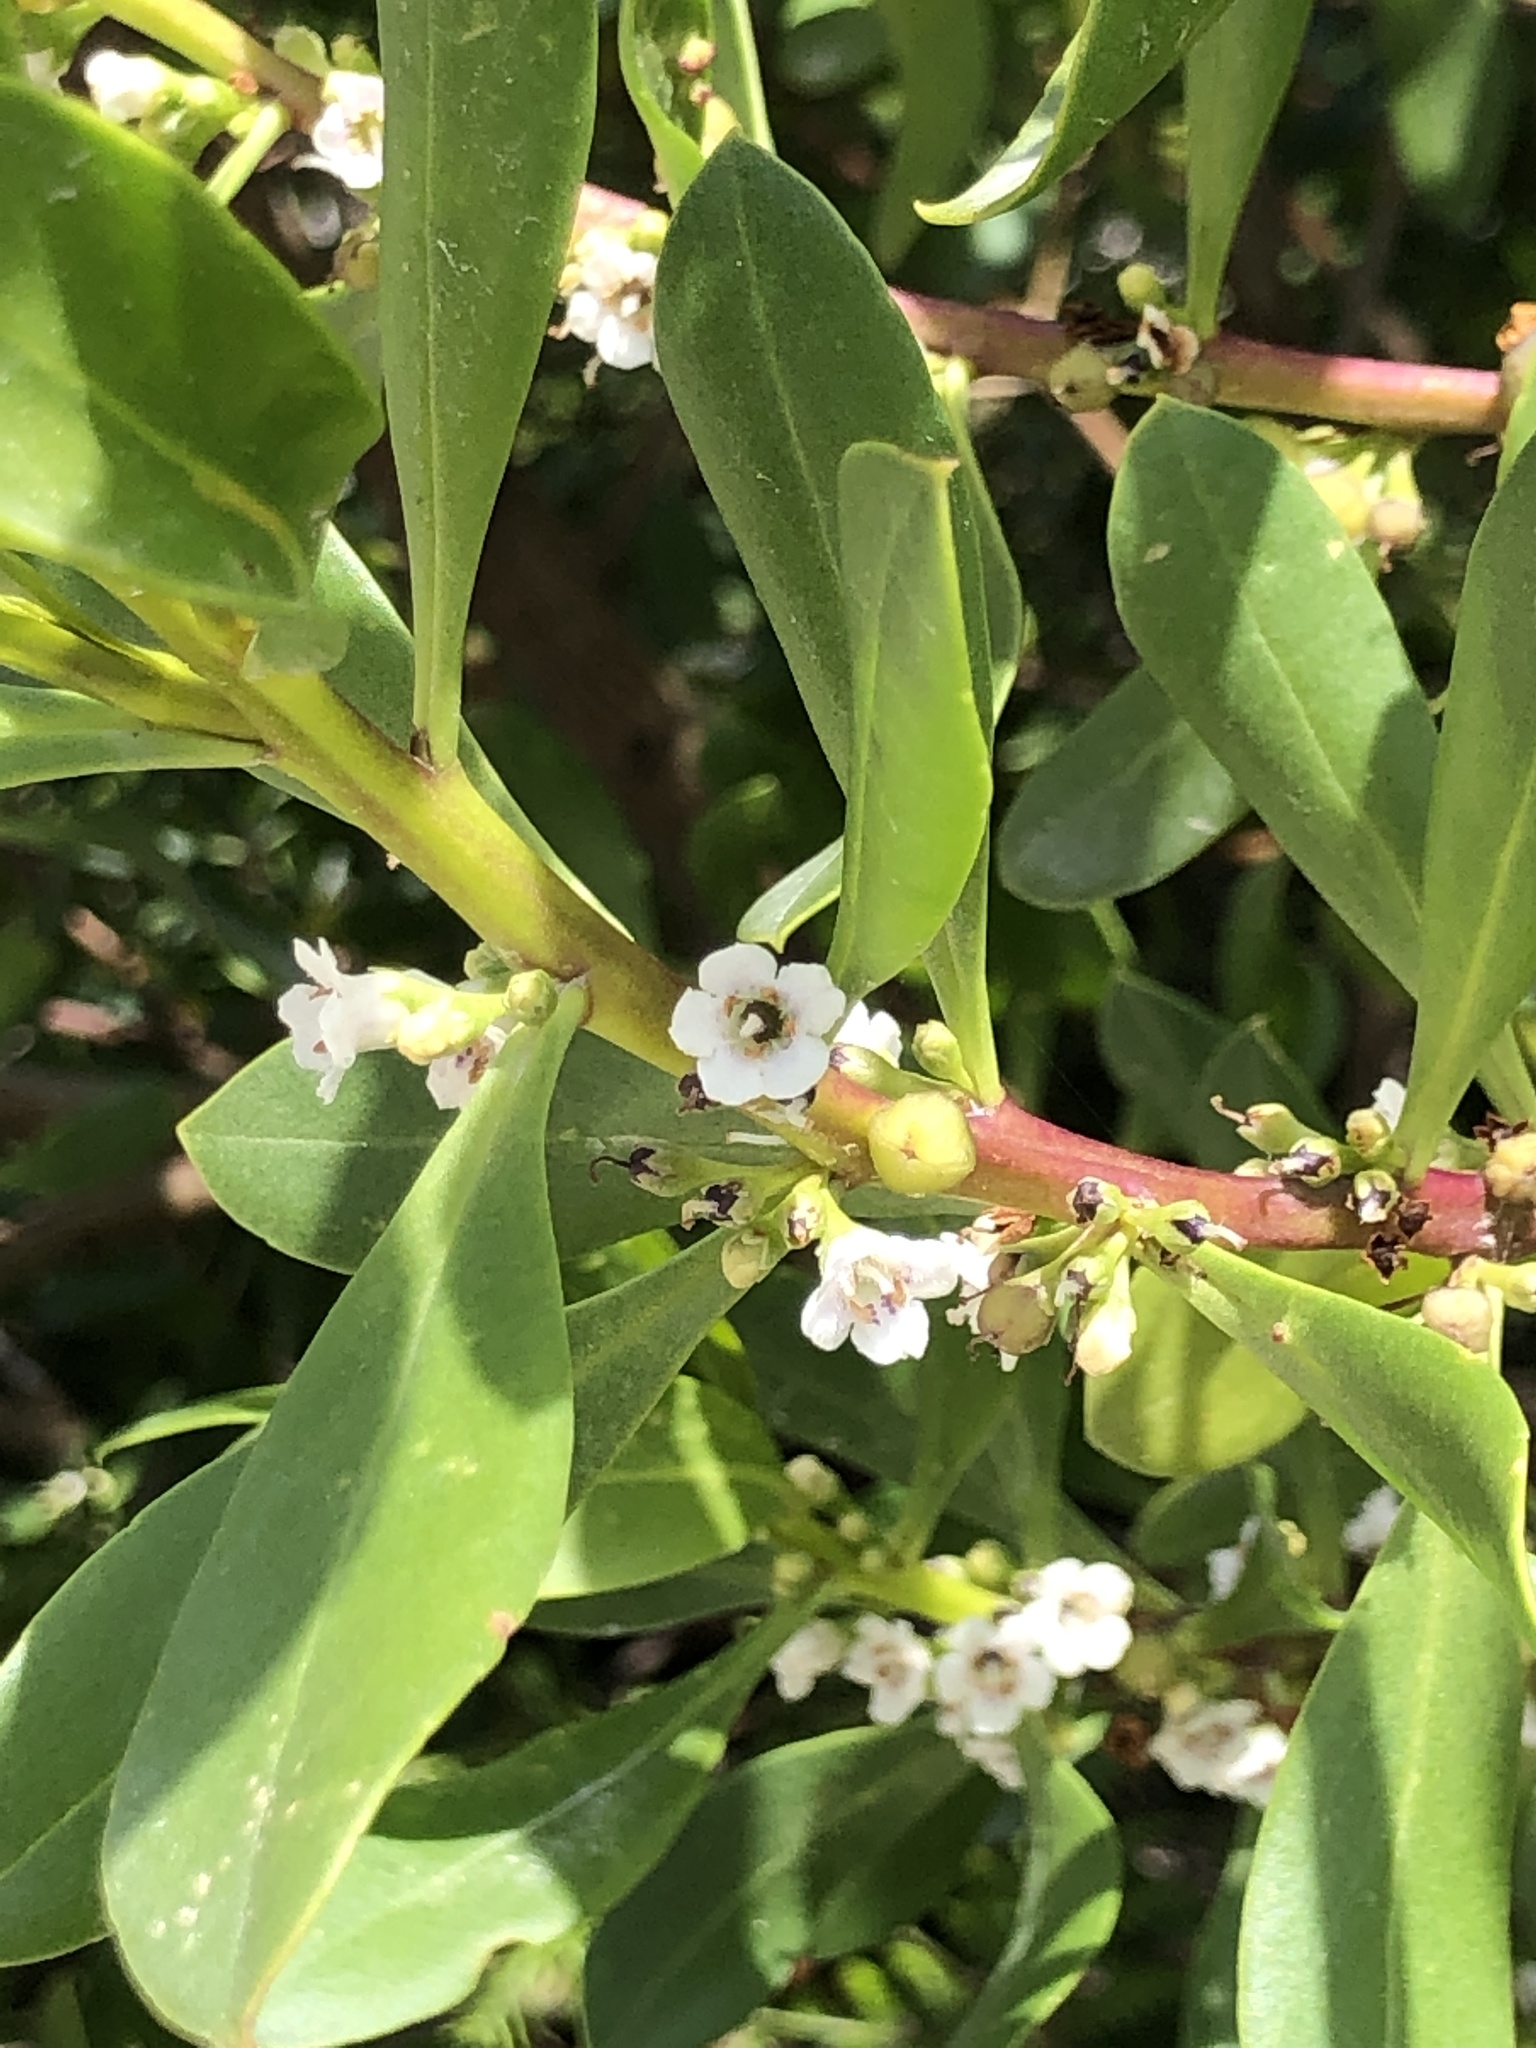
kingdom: Plantae
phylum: Tracheophyta
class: Magnoliopsida
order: Lamiales
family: Scrophulariaceae
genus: Myoporum
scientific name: Myoporum boninense
